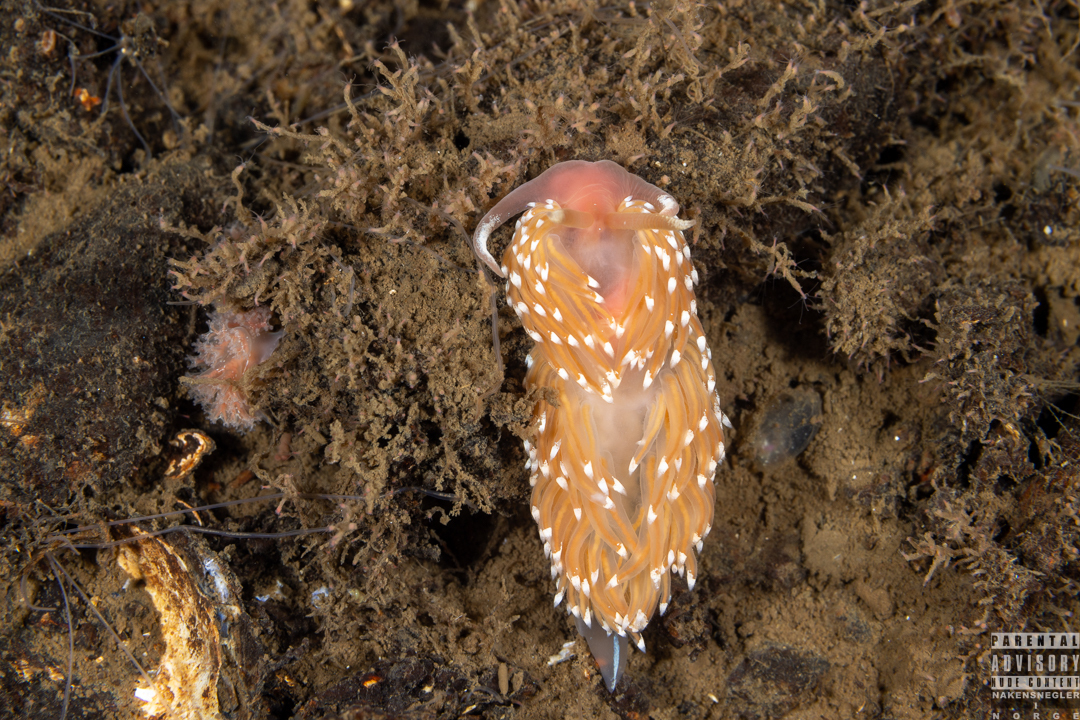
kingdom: Animalia
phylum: Mollusca
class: Gastropoda
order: Nudibranchia
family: Facelinidae
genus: Facelina
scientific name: Facelina bostoniensis
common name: Boston facelina
